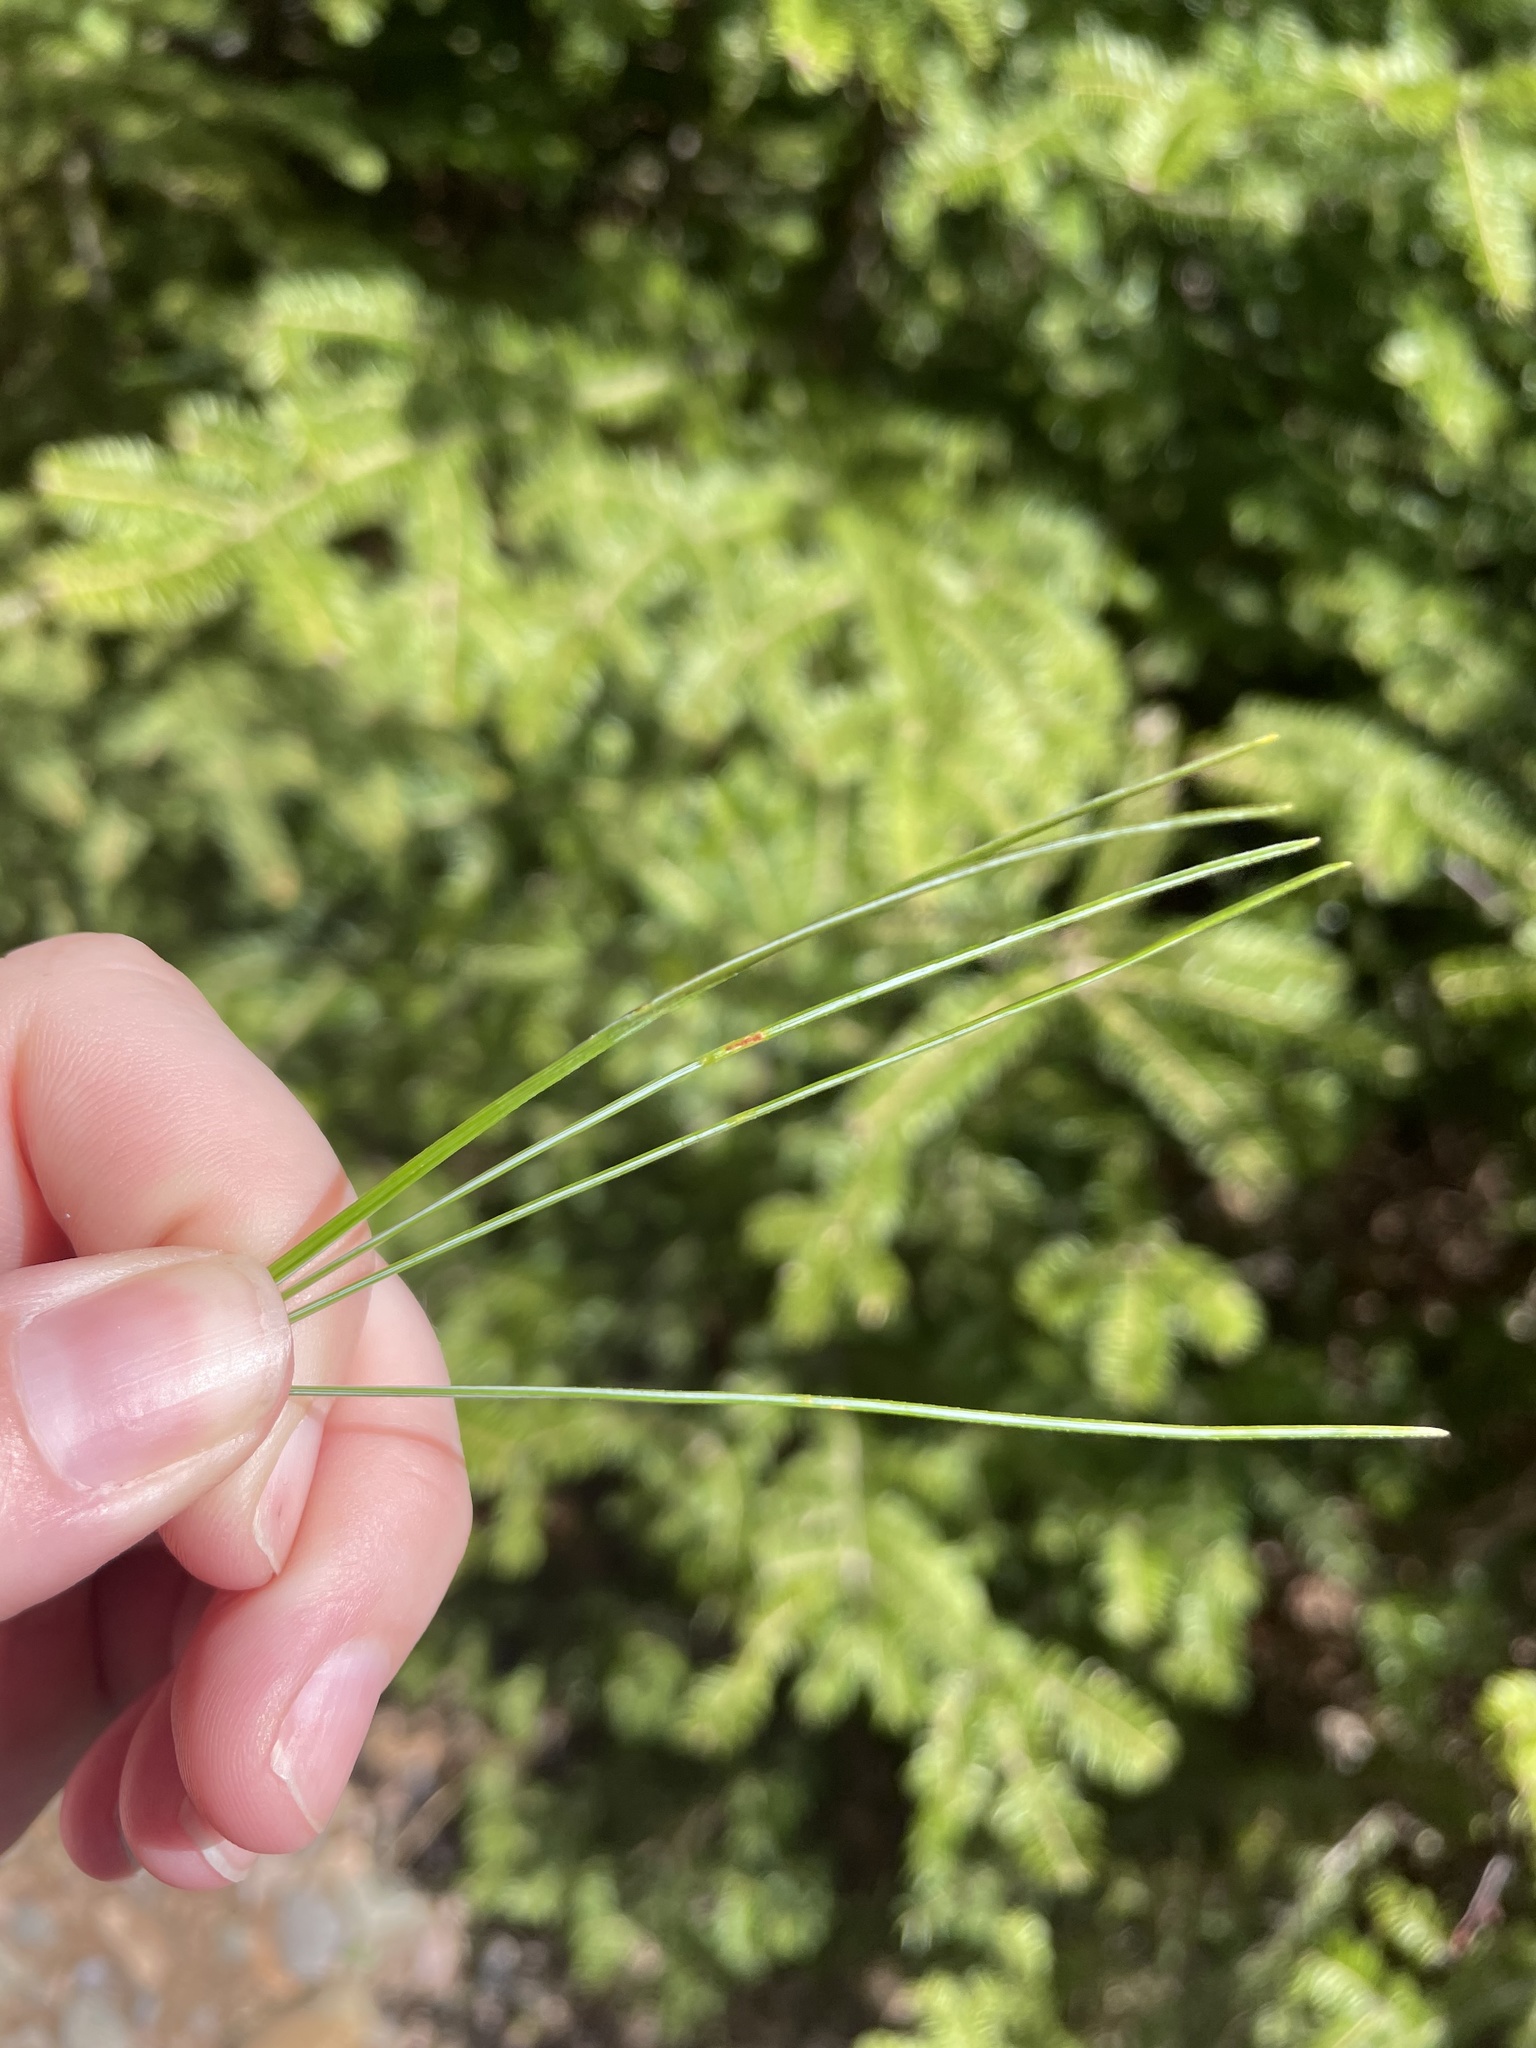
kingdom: Plantae
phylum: Tracheophyta
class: Pinopsida
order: Pinales
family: Pinaceae
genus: Pinus
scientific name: Pinus strobus
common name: Weymouth pine
